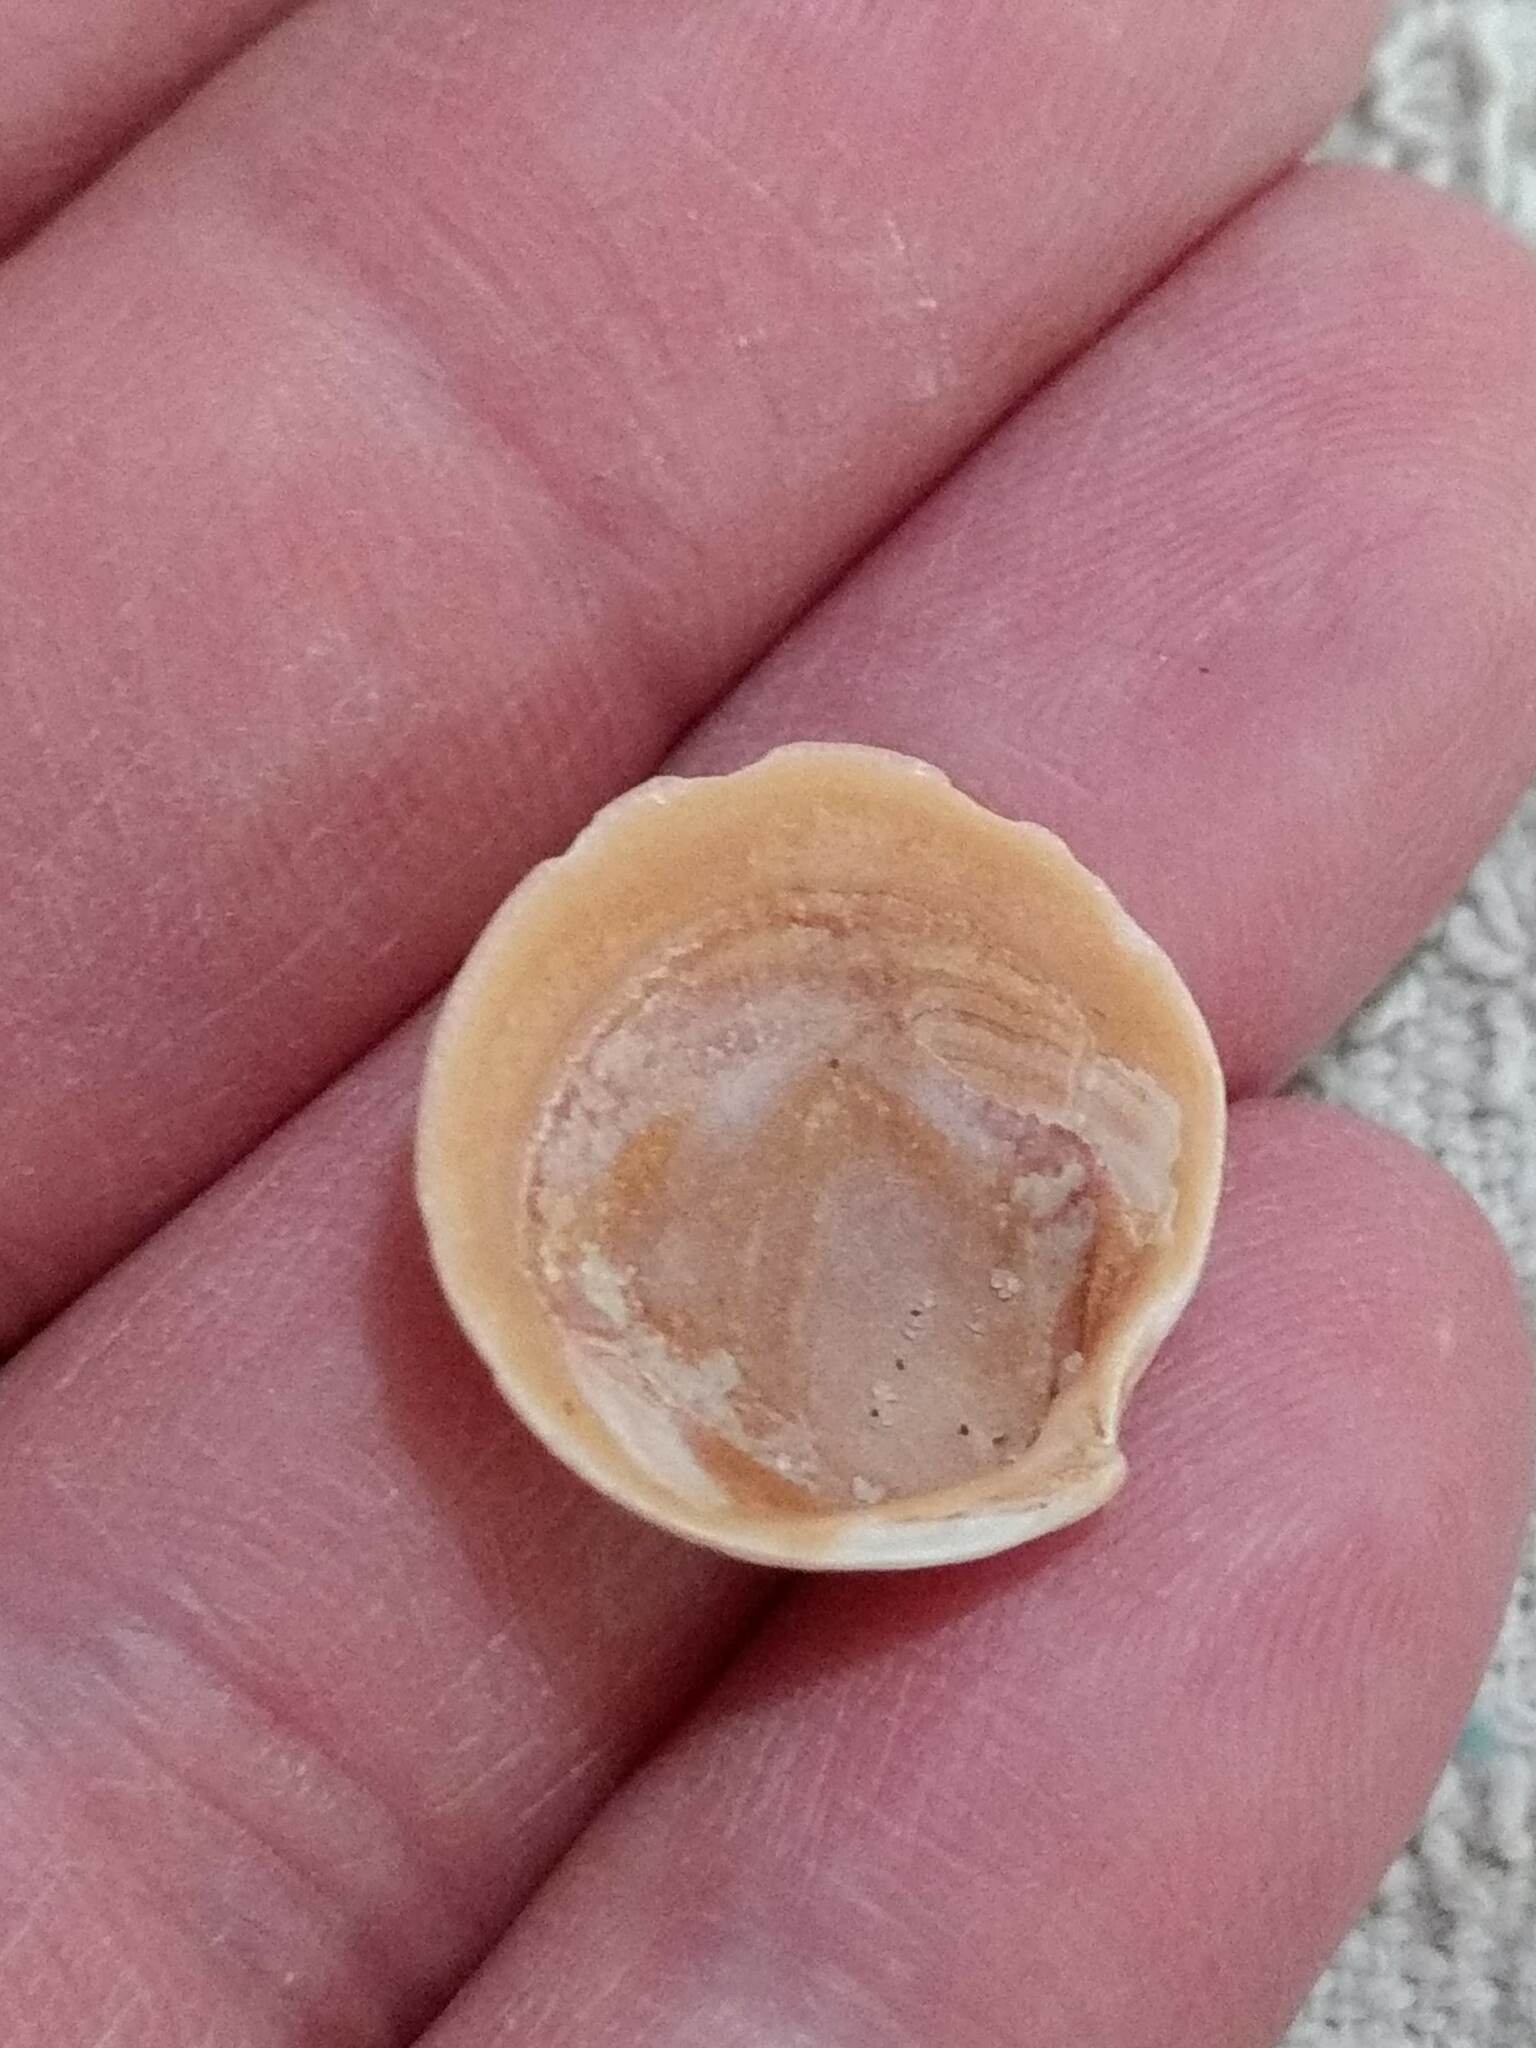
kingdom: Animalia
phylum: Mollusca
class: Bivalvia
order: Lucinida
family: Lucinidae
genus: Callucina
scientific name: Callucina keenae
